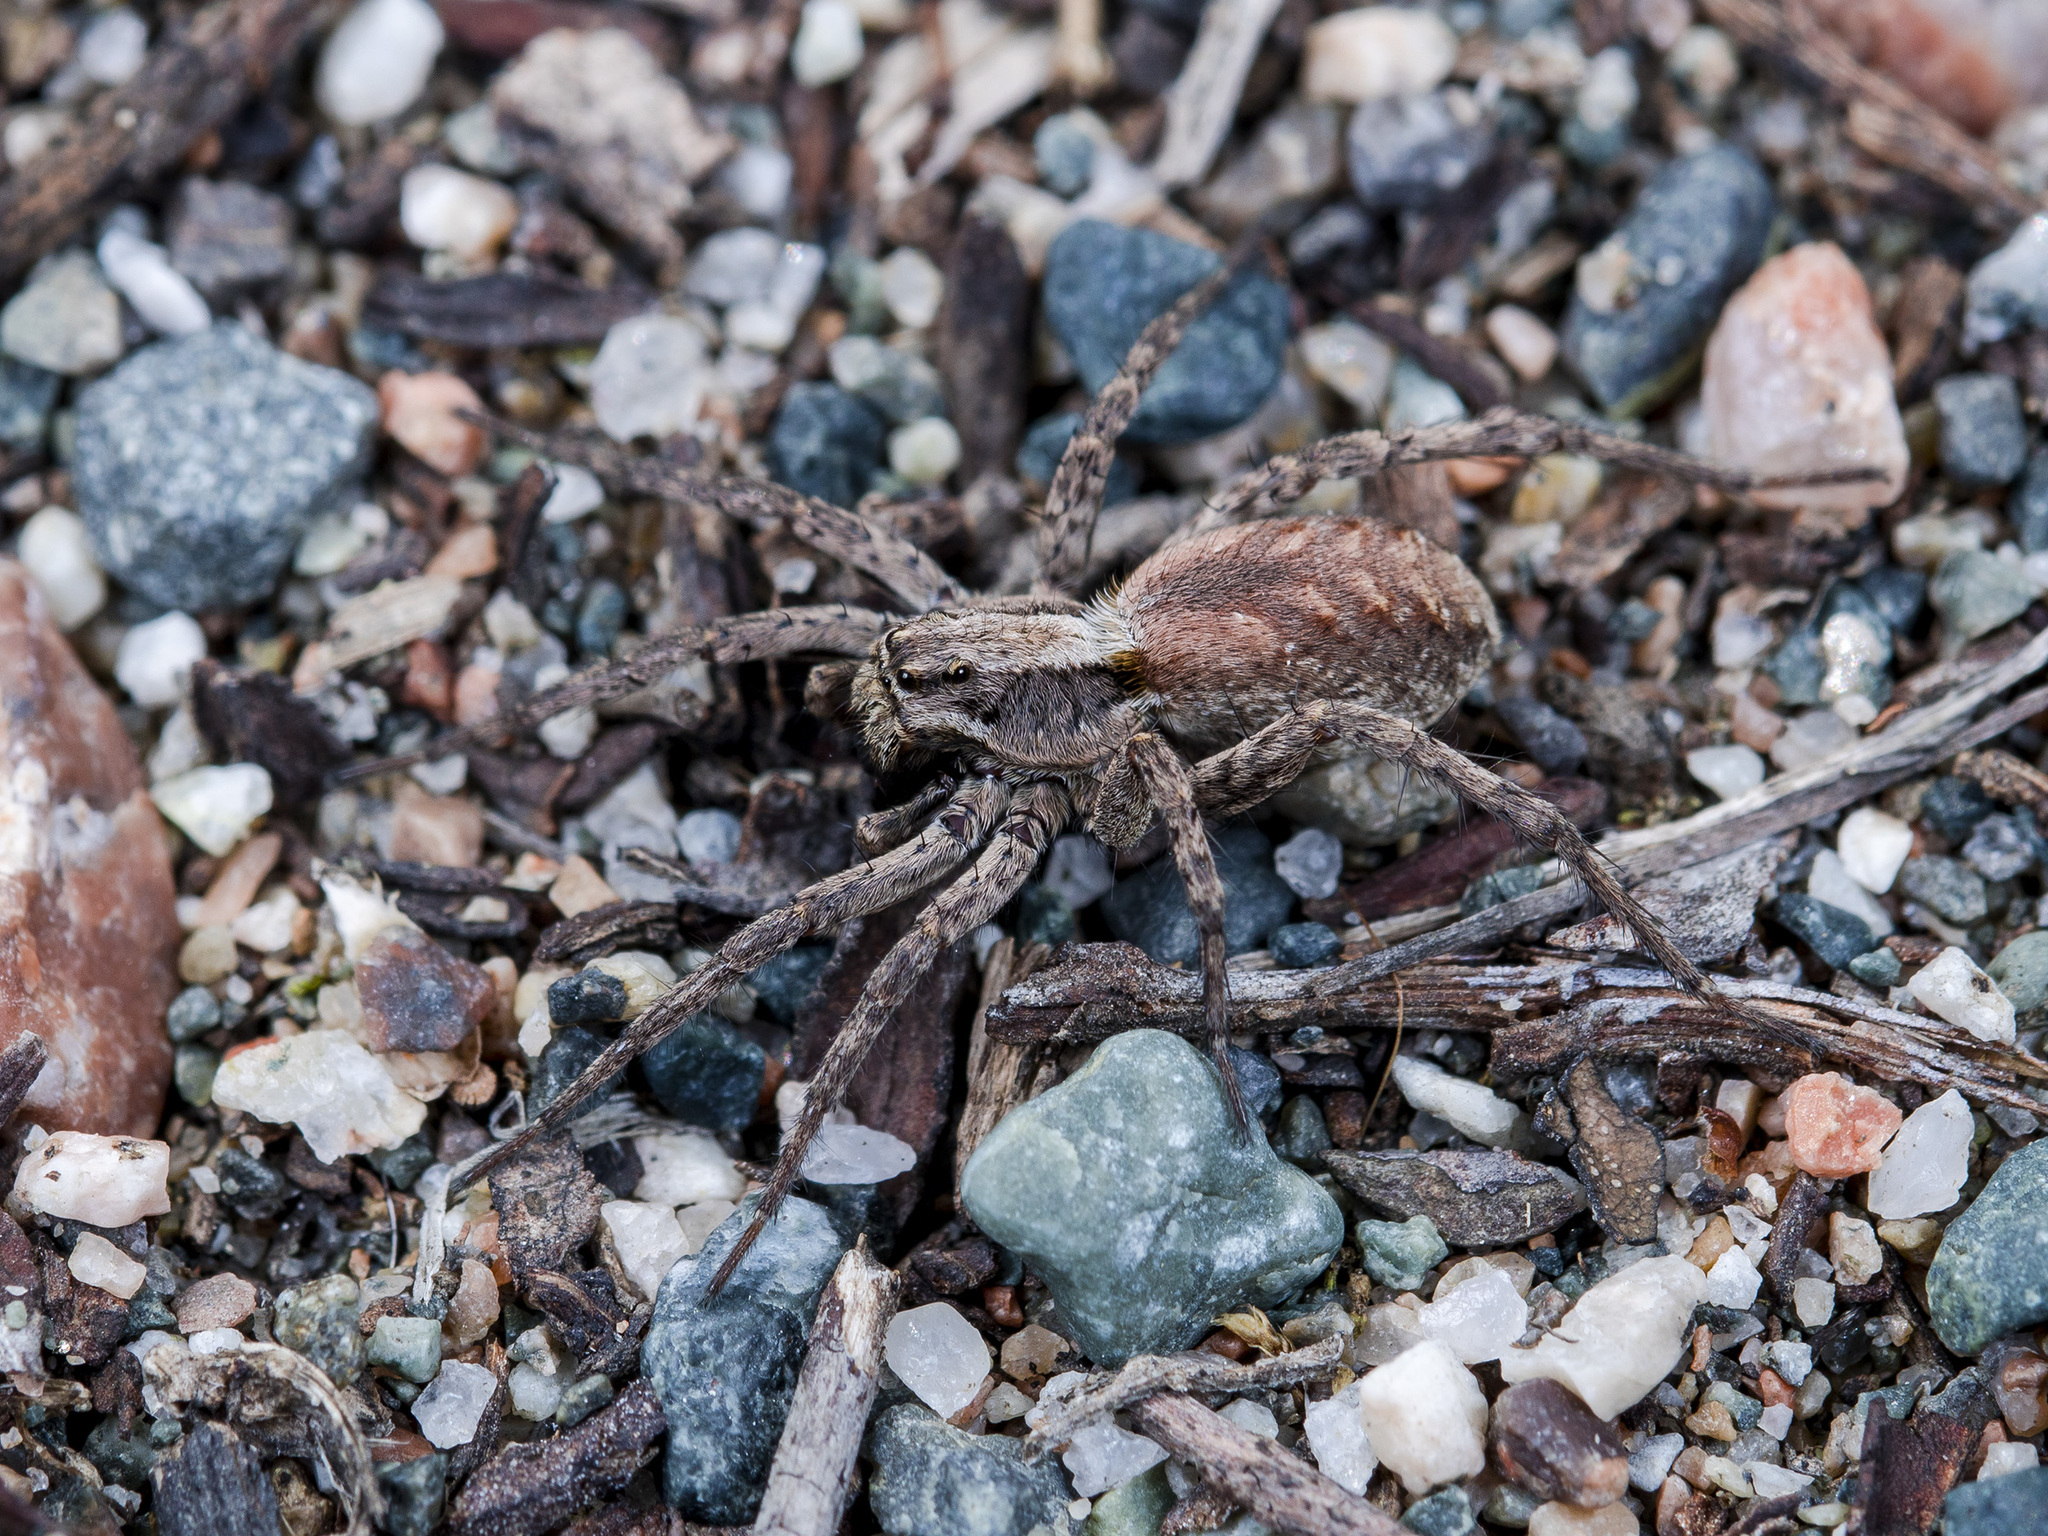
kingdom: Animalia
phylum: Arthropoda
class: Arachnida
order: Araneae
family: Lycosidae
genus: Alopecosa
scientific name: Alopecosa cursor
